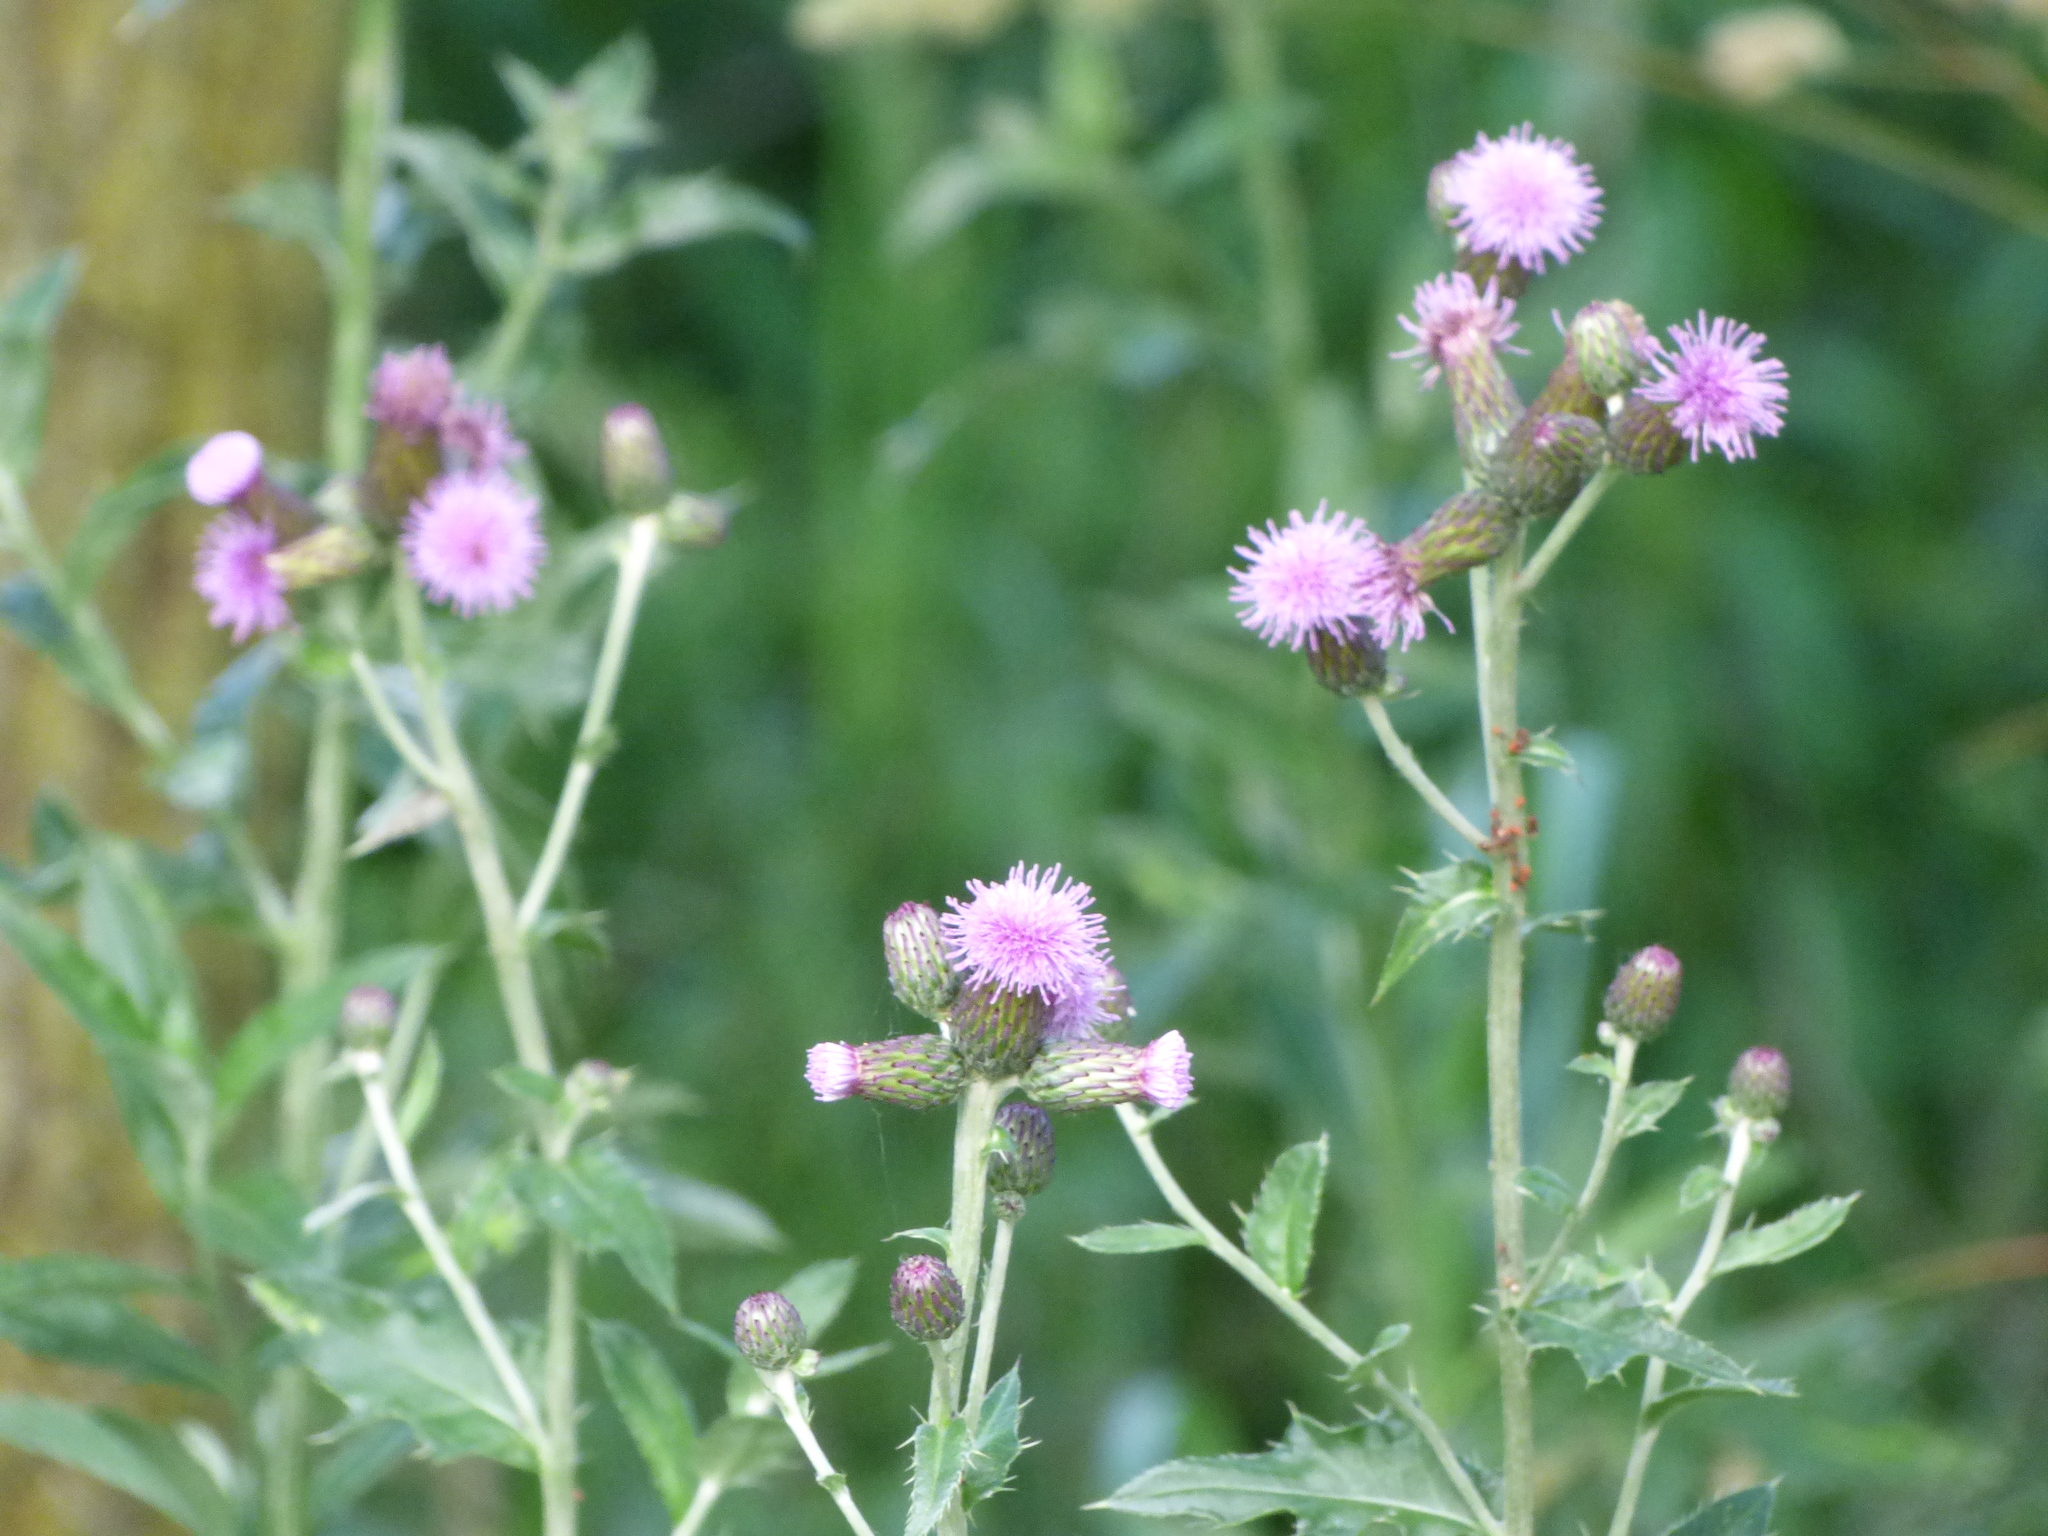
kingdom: Plantae
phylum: Tracheophyta
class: Magnoliopsida
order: Asterales
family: Asteraceae
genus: Cirsium
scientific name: Cirsium arvense
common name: Creeping thistle
